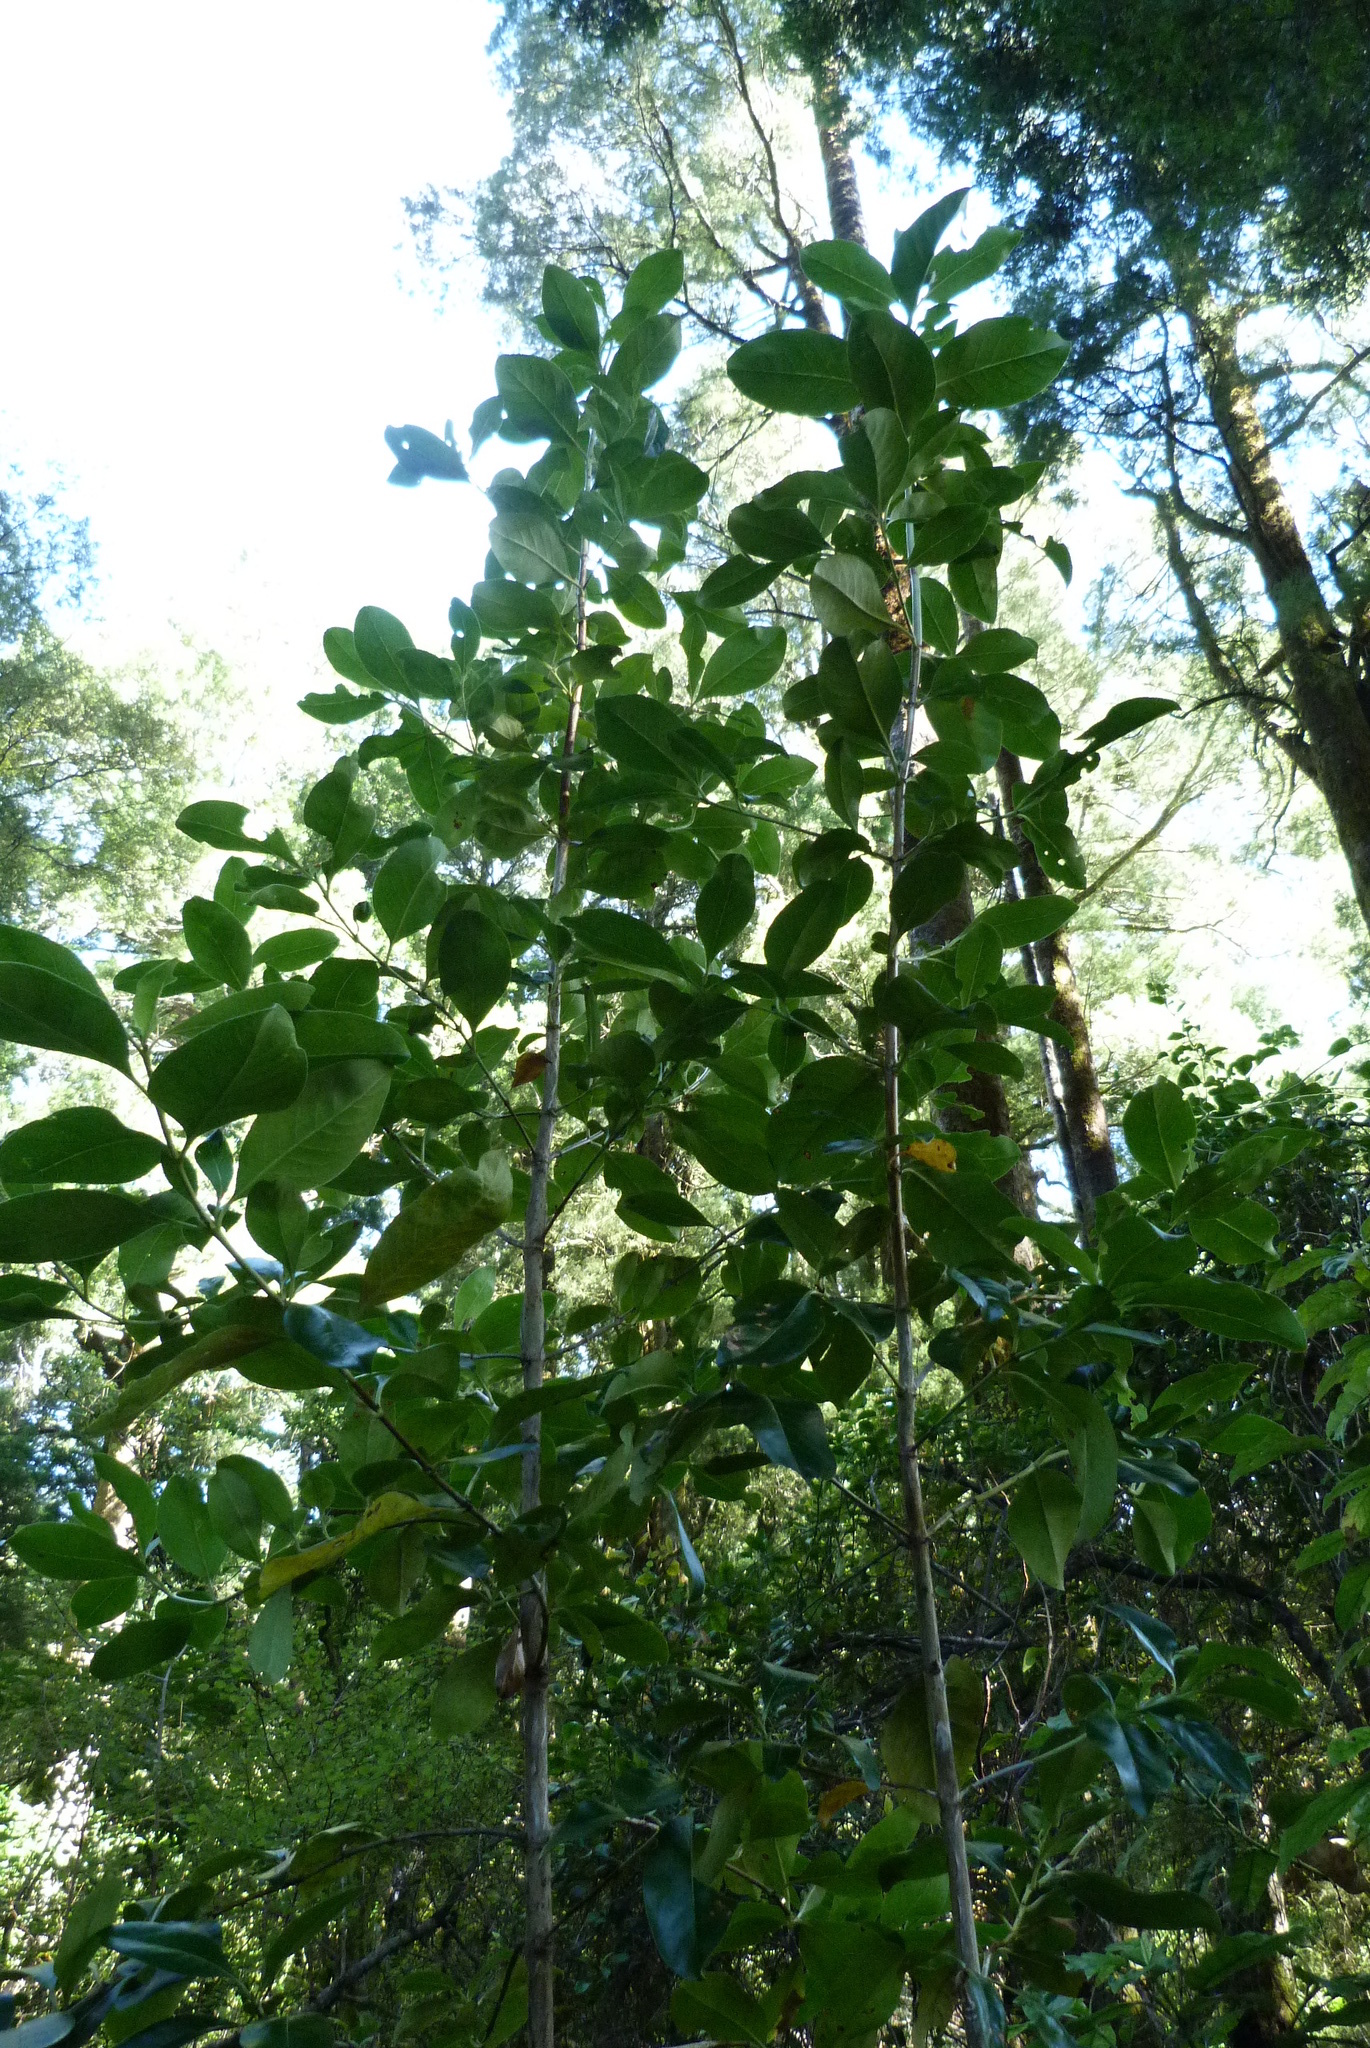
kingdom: Plantae
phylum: Tracheophyta
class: Magnoliopsida
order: Gentianales
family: Rubiaceae
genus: Coprosma
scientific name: Coprosma robusta
